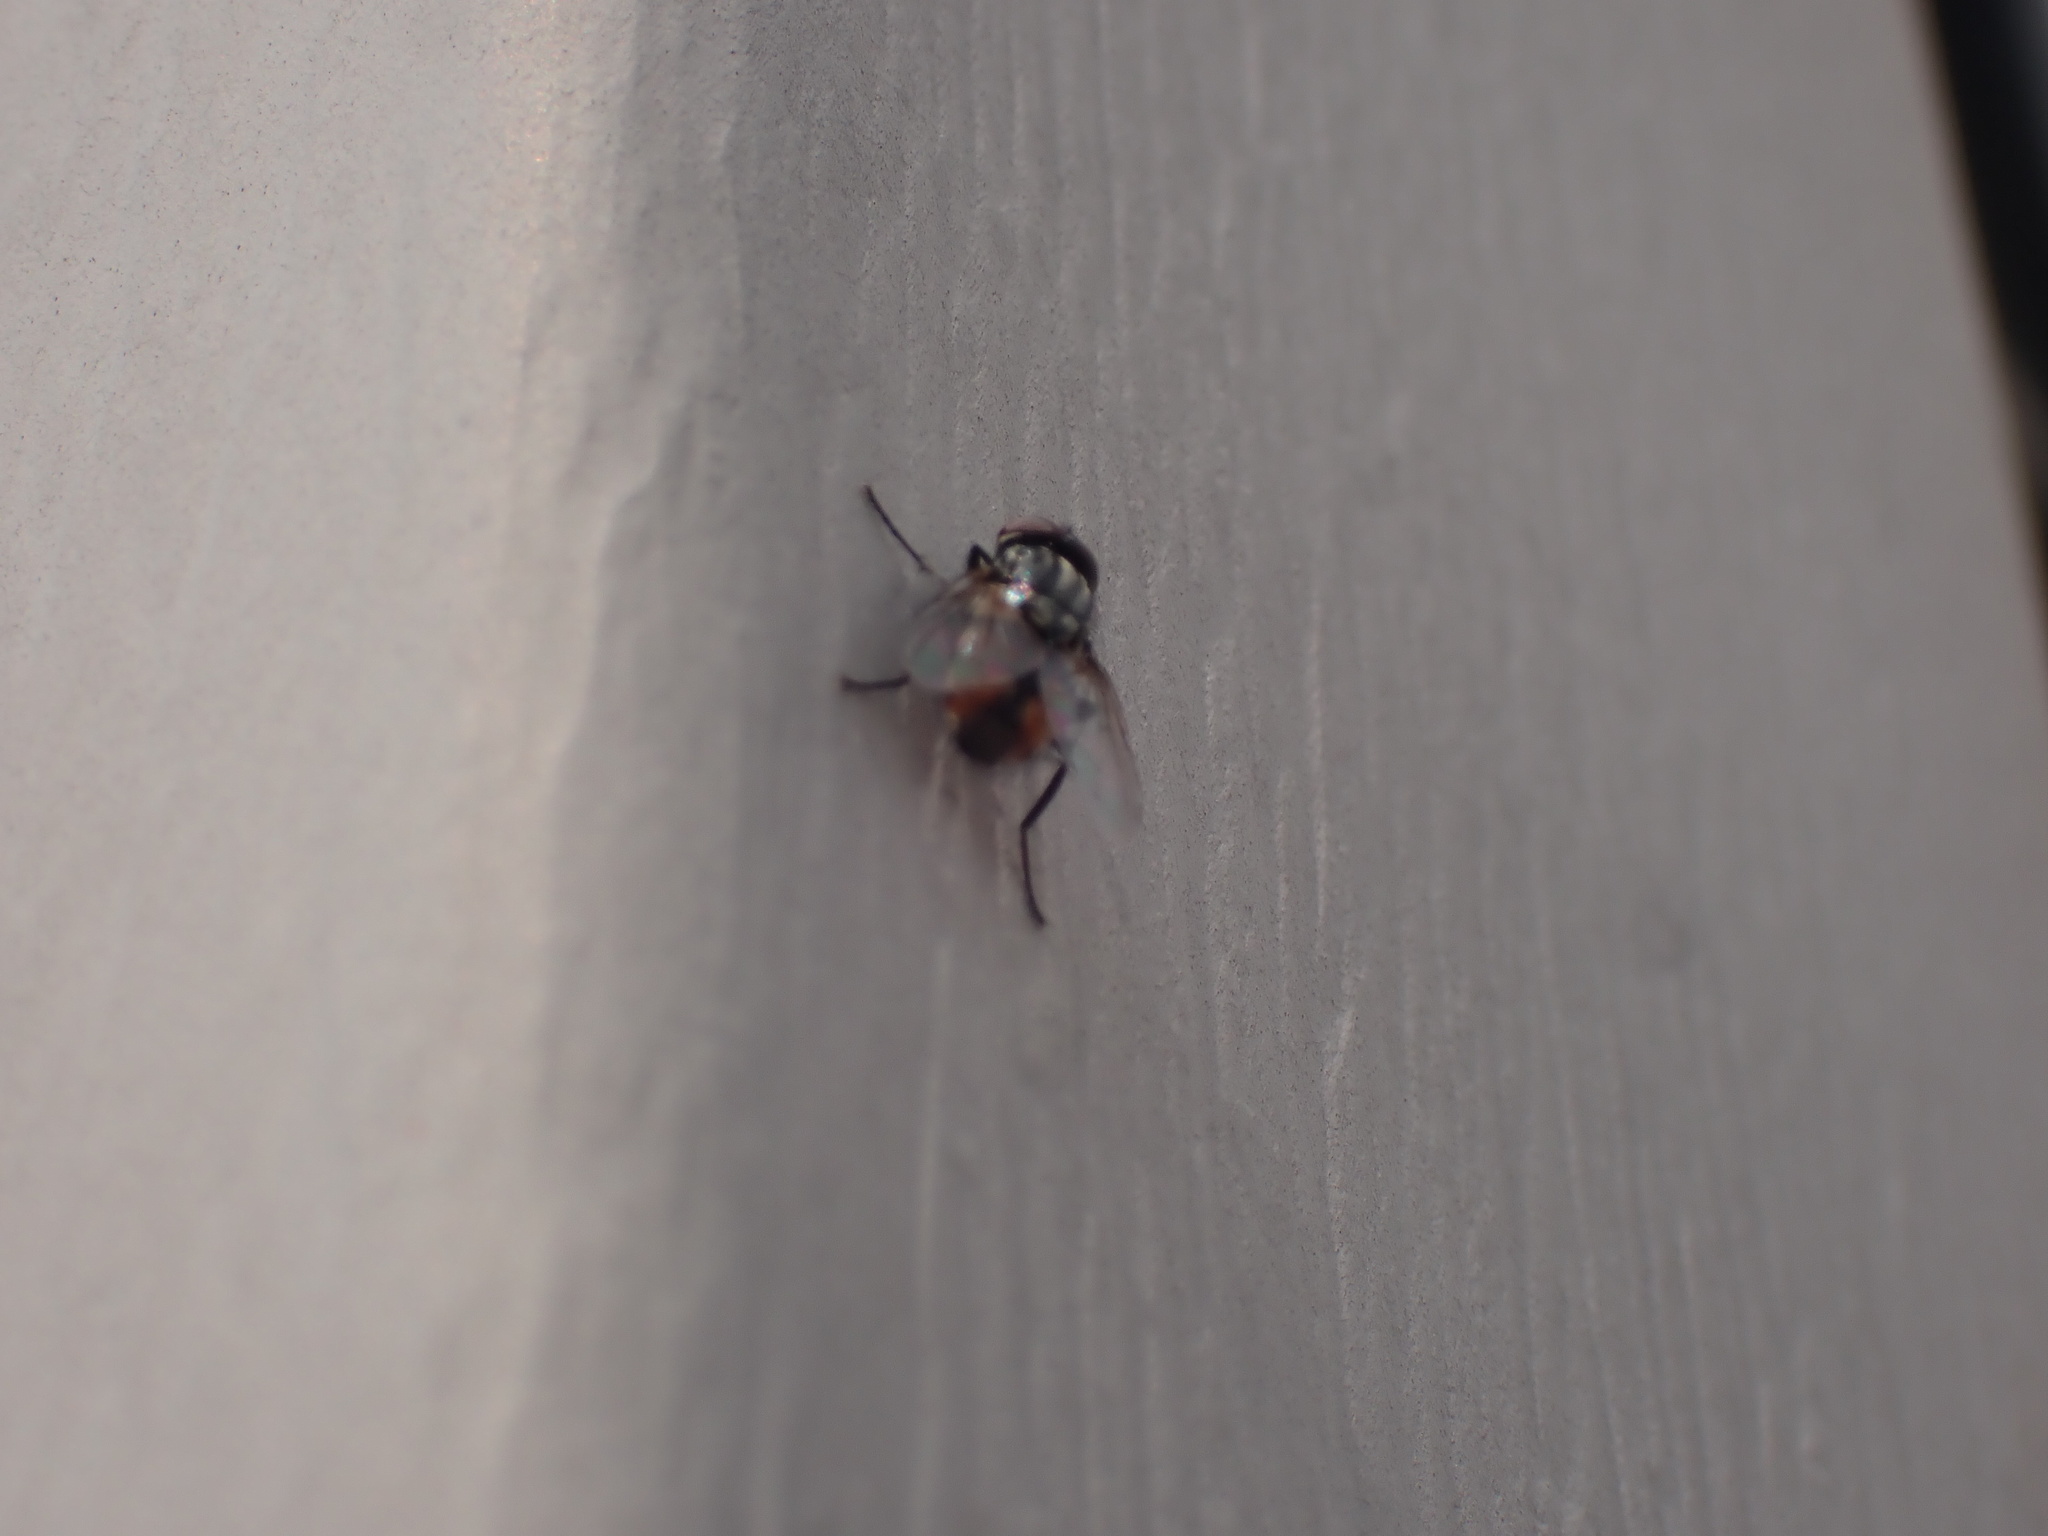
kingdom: Animalia
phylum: Arthropoda
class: Insecta
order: Diptera
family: Muscidae
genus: Musca
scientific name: Musca autumnalis
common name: Face fly
